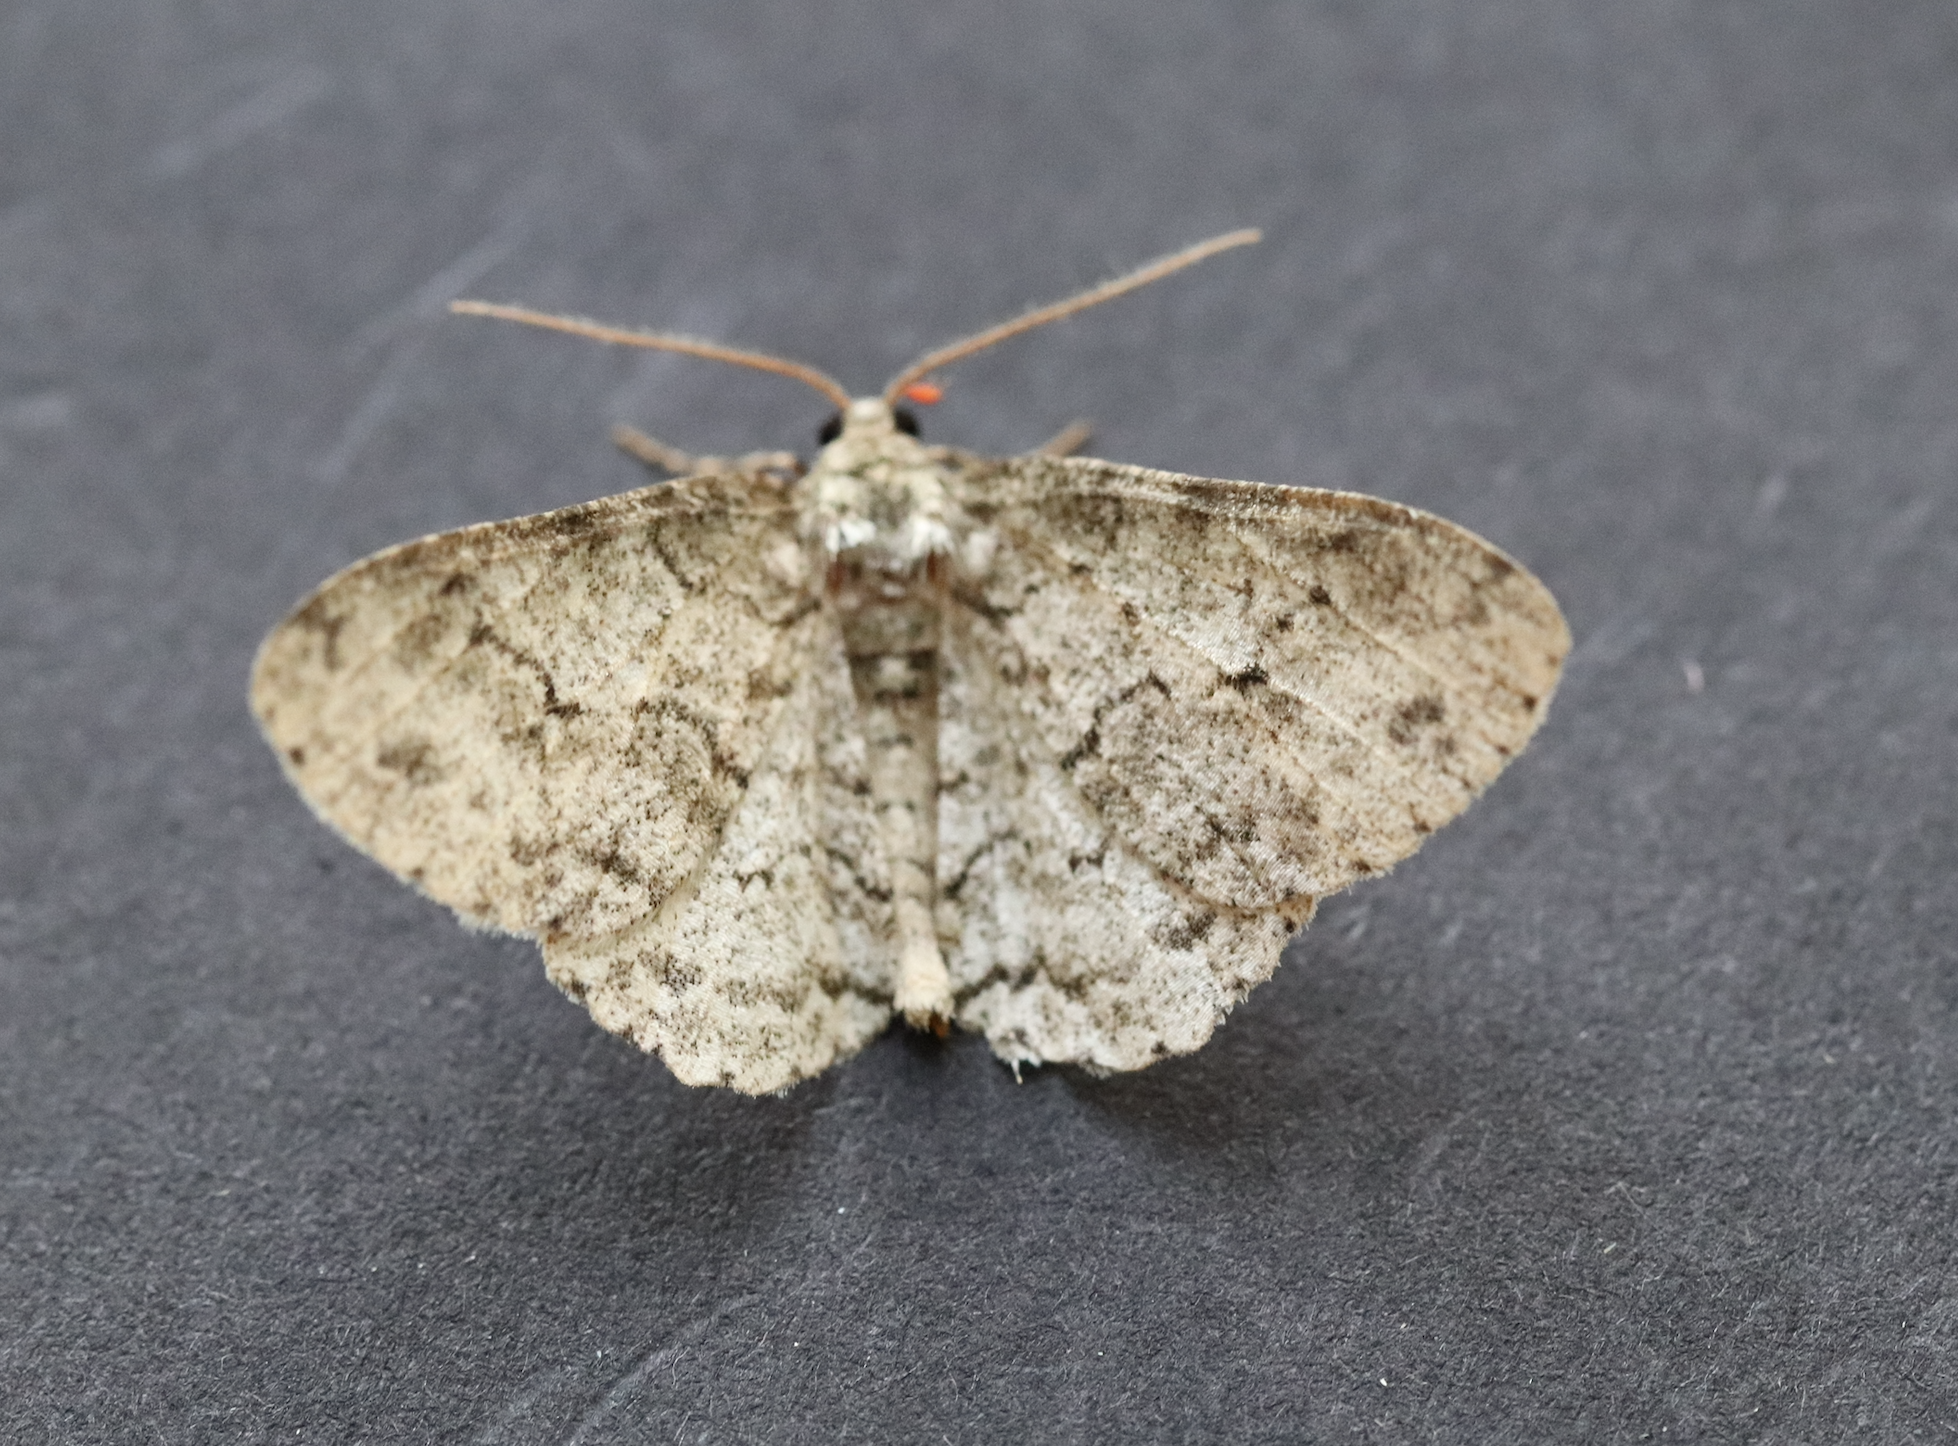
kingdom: Animalia
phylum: Arthropoda
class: Insecta
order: Lepidoptera
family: Geometridae
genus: Ectropis
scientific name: Ectropis crepuscularia
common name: Engrailed
